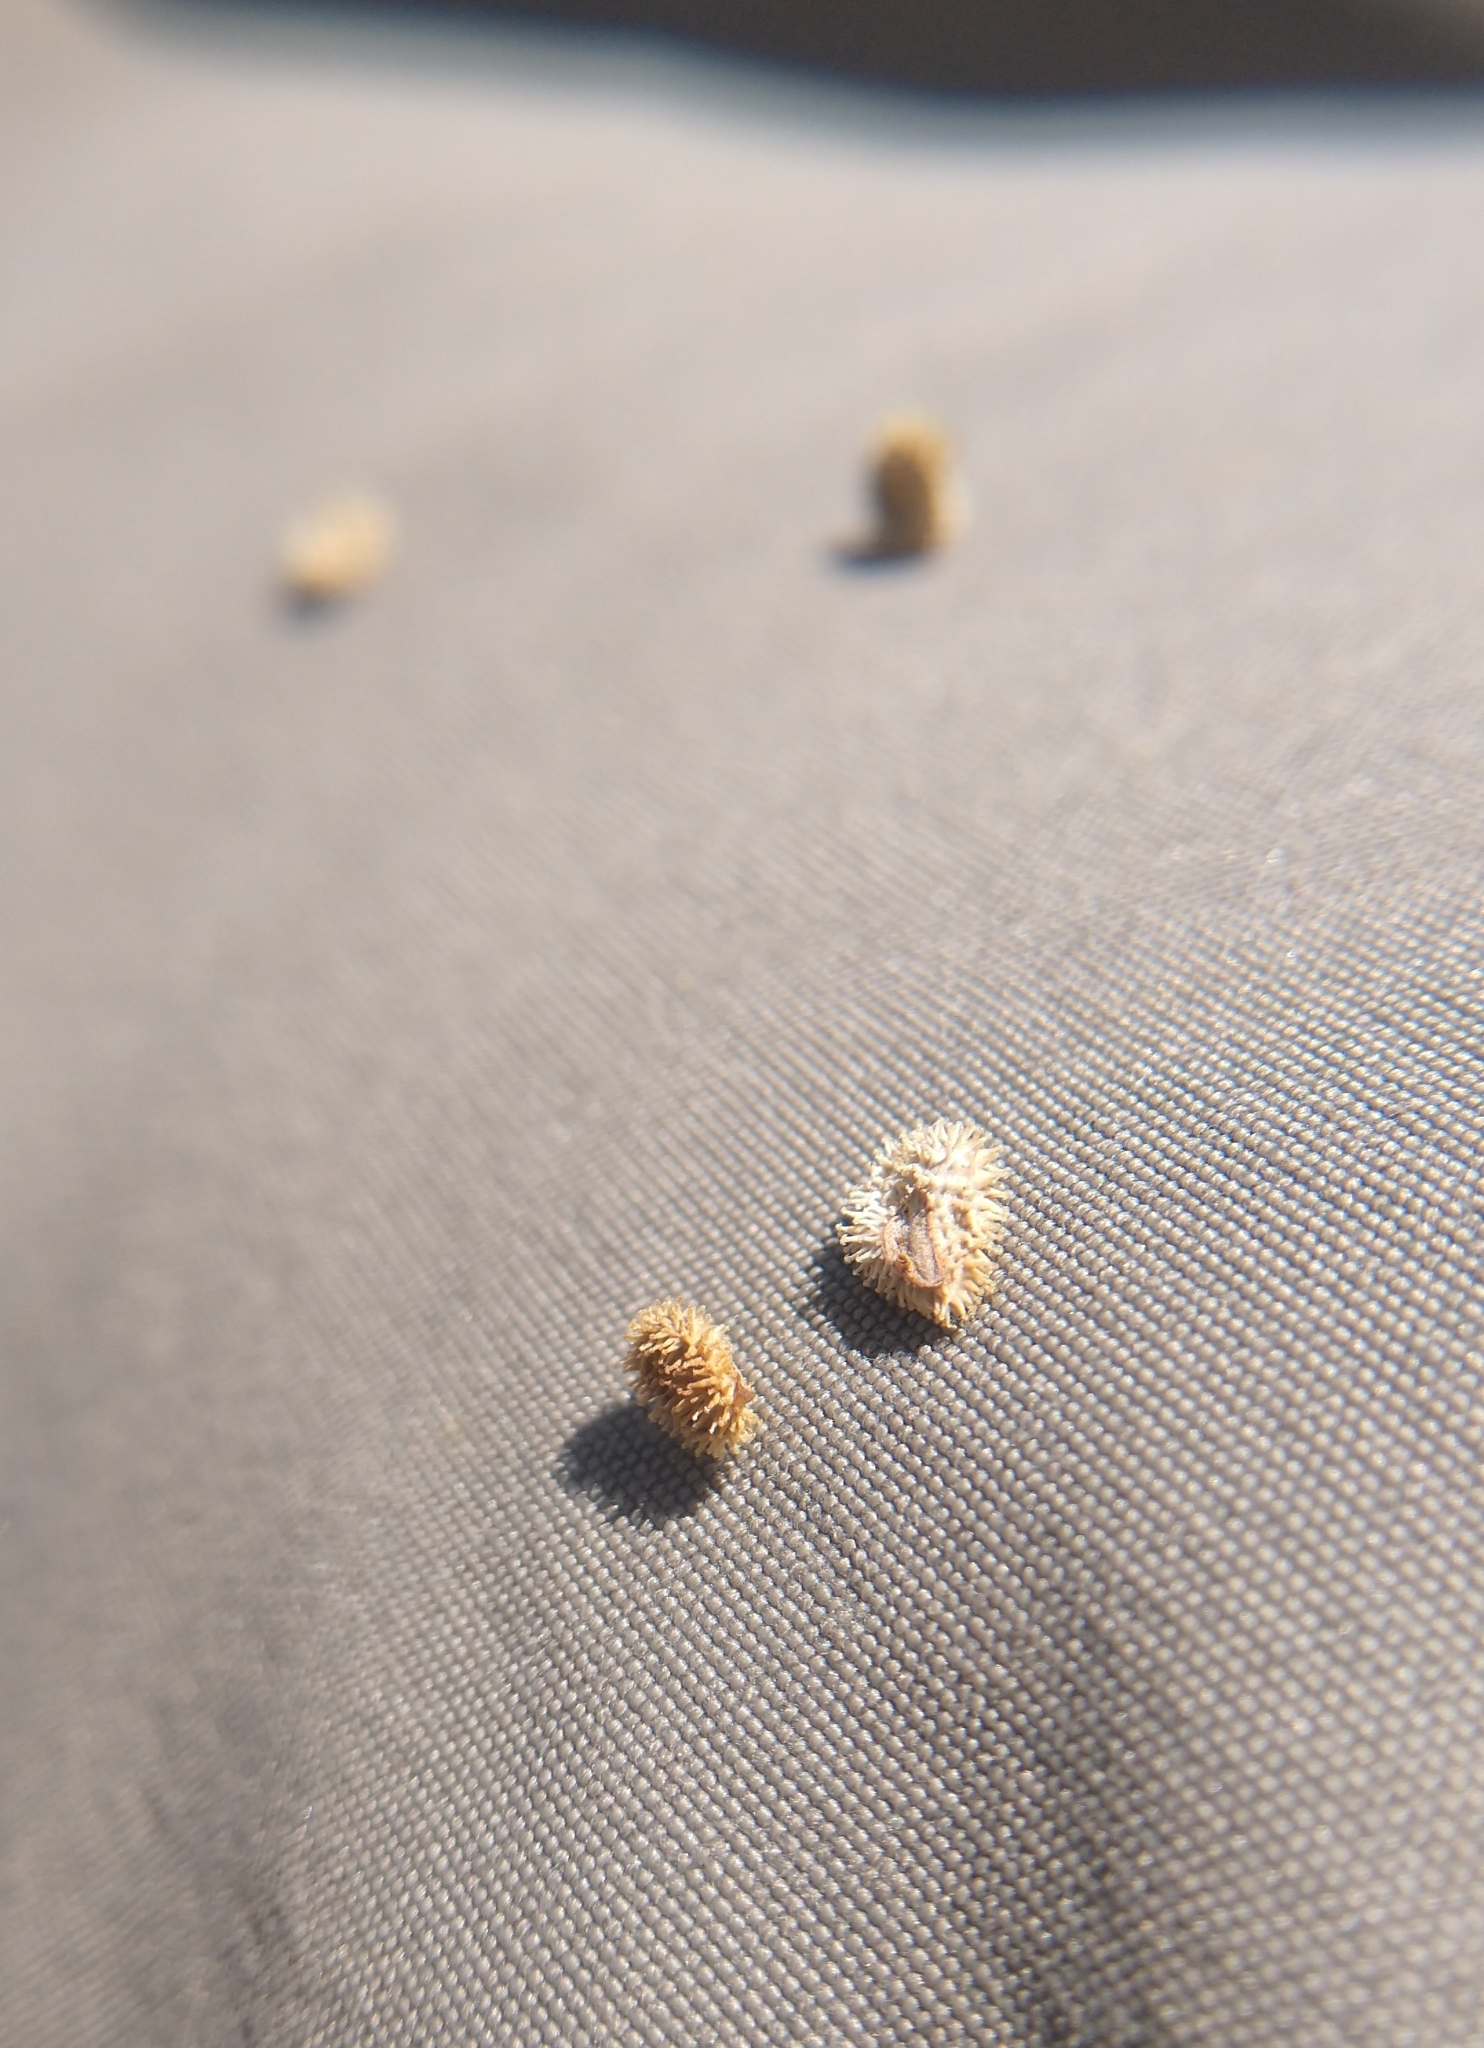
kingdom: Plantae
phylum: Tracheophyta
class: Magnoliopsida
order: Boraginales
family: Boraginaceae
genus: Cynoglossum
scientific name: Cynoglossum officinale
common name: Hound's-tongue
